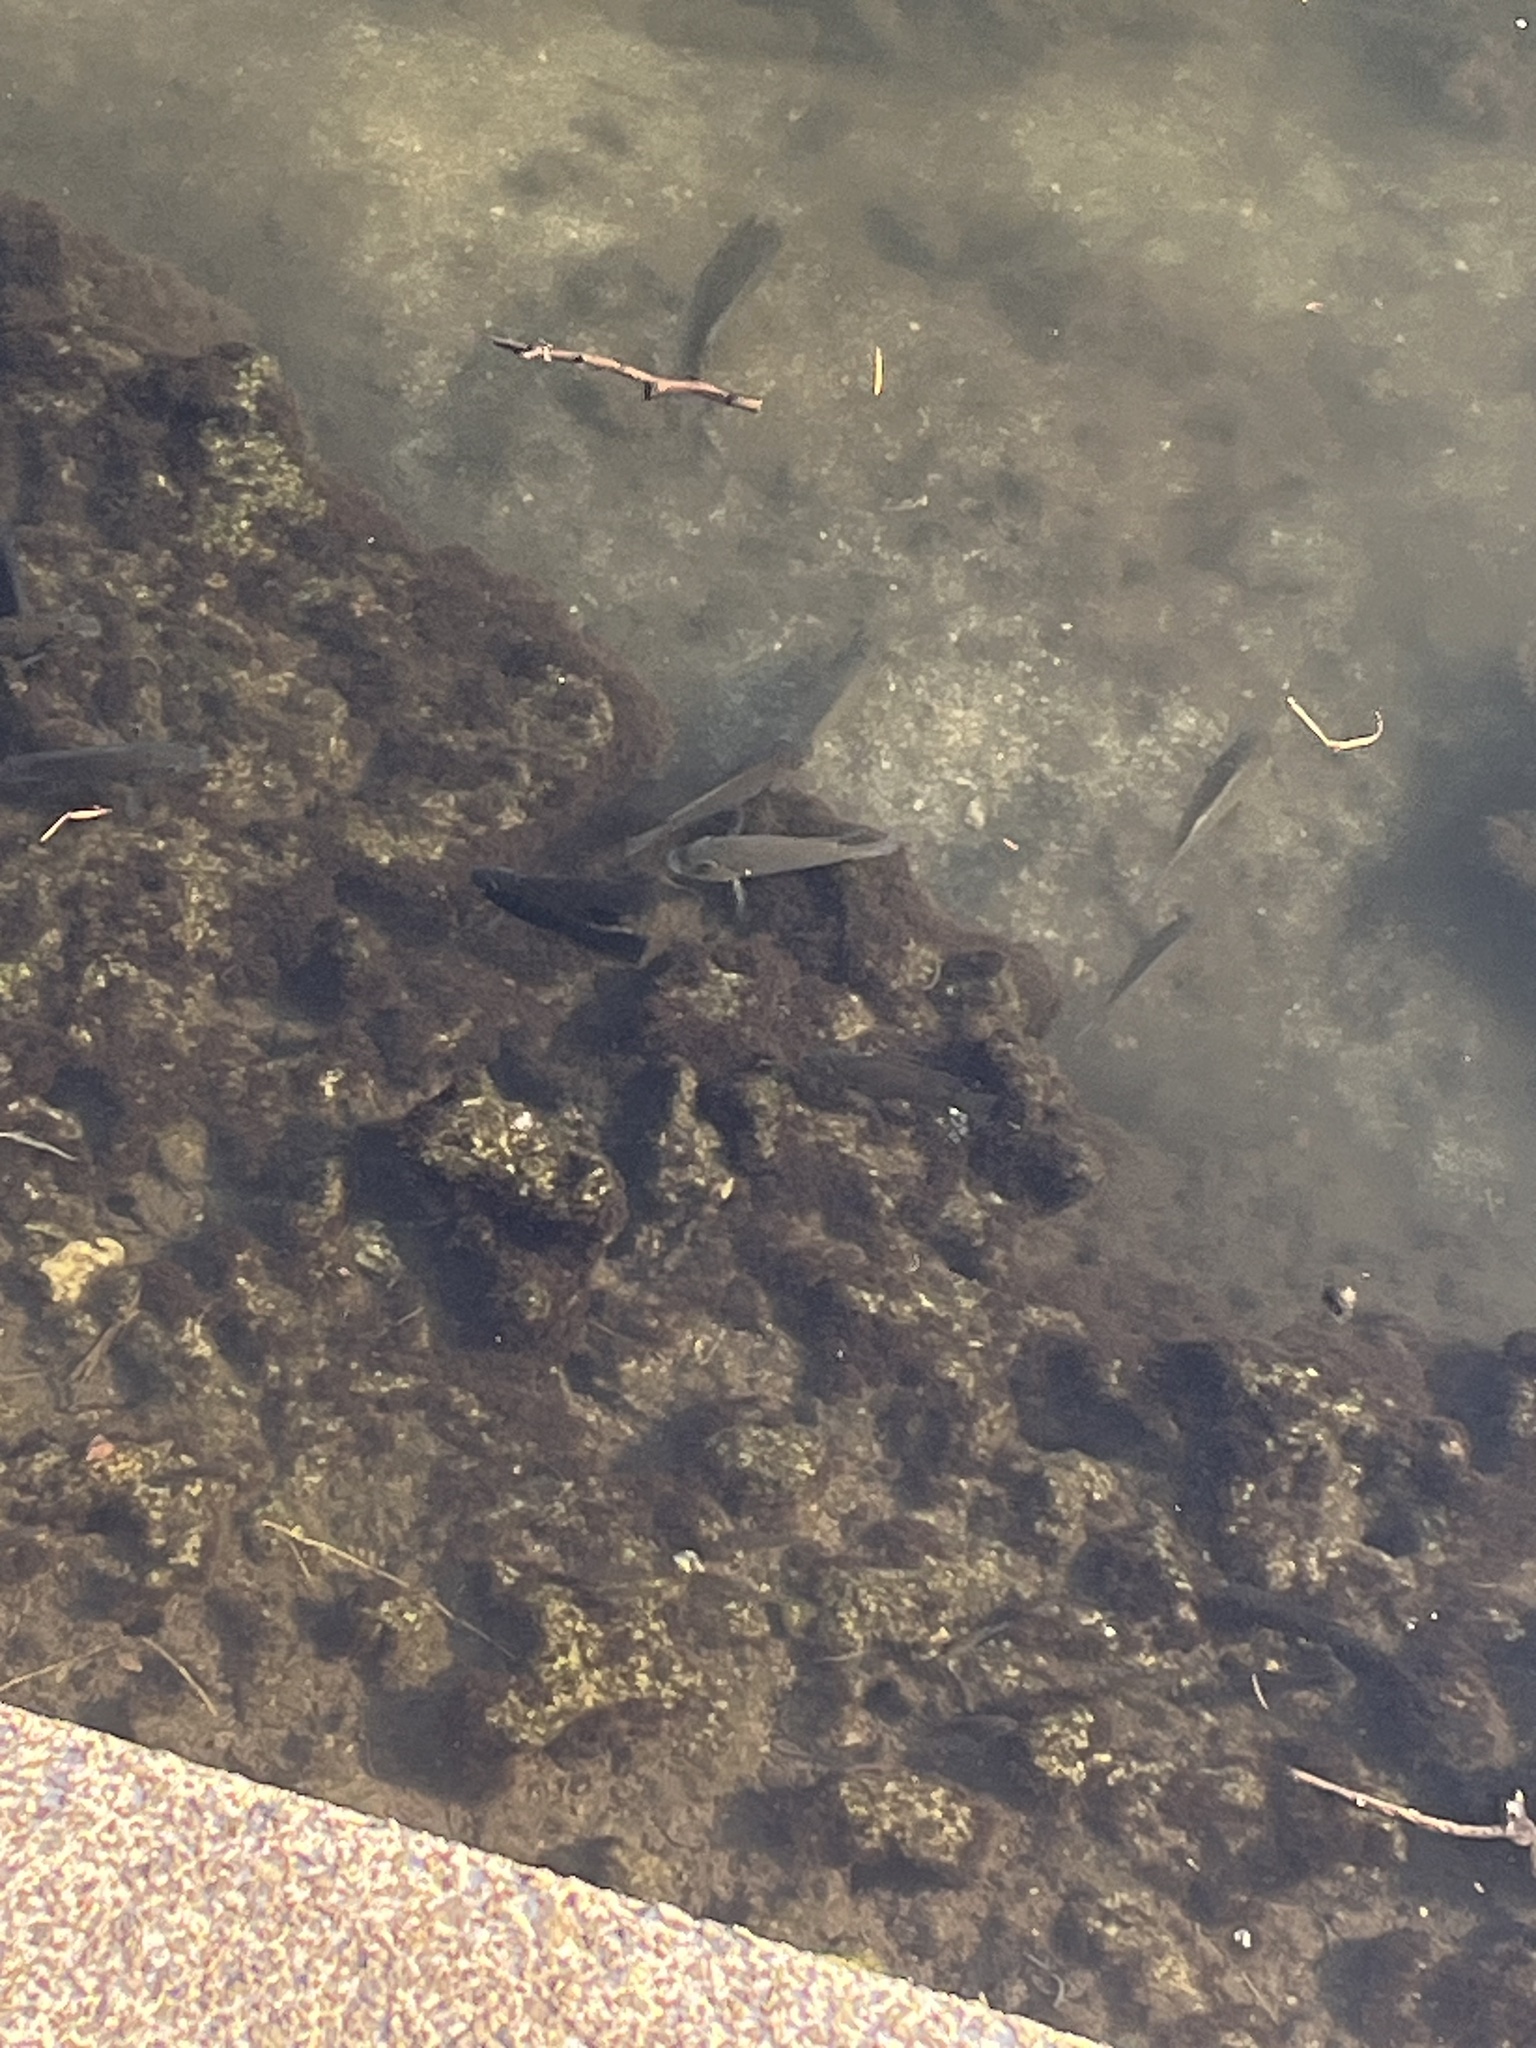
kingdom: Animalia
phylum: Chordata
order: Perciformes
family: Cichlidae
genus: Sarotherodon
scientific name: Sarotherodon melanotheron
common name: Blackchin tilapia
